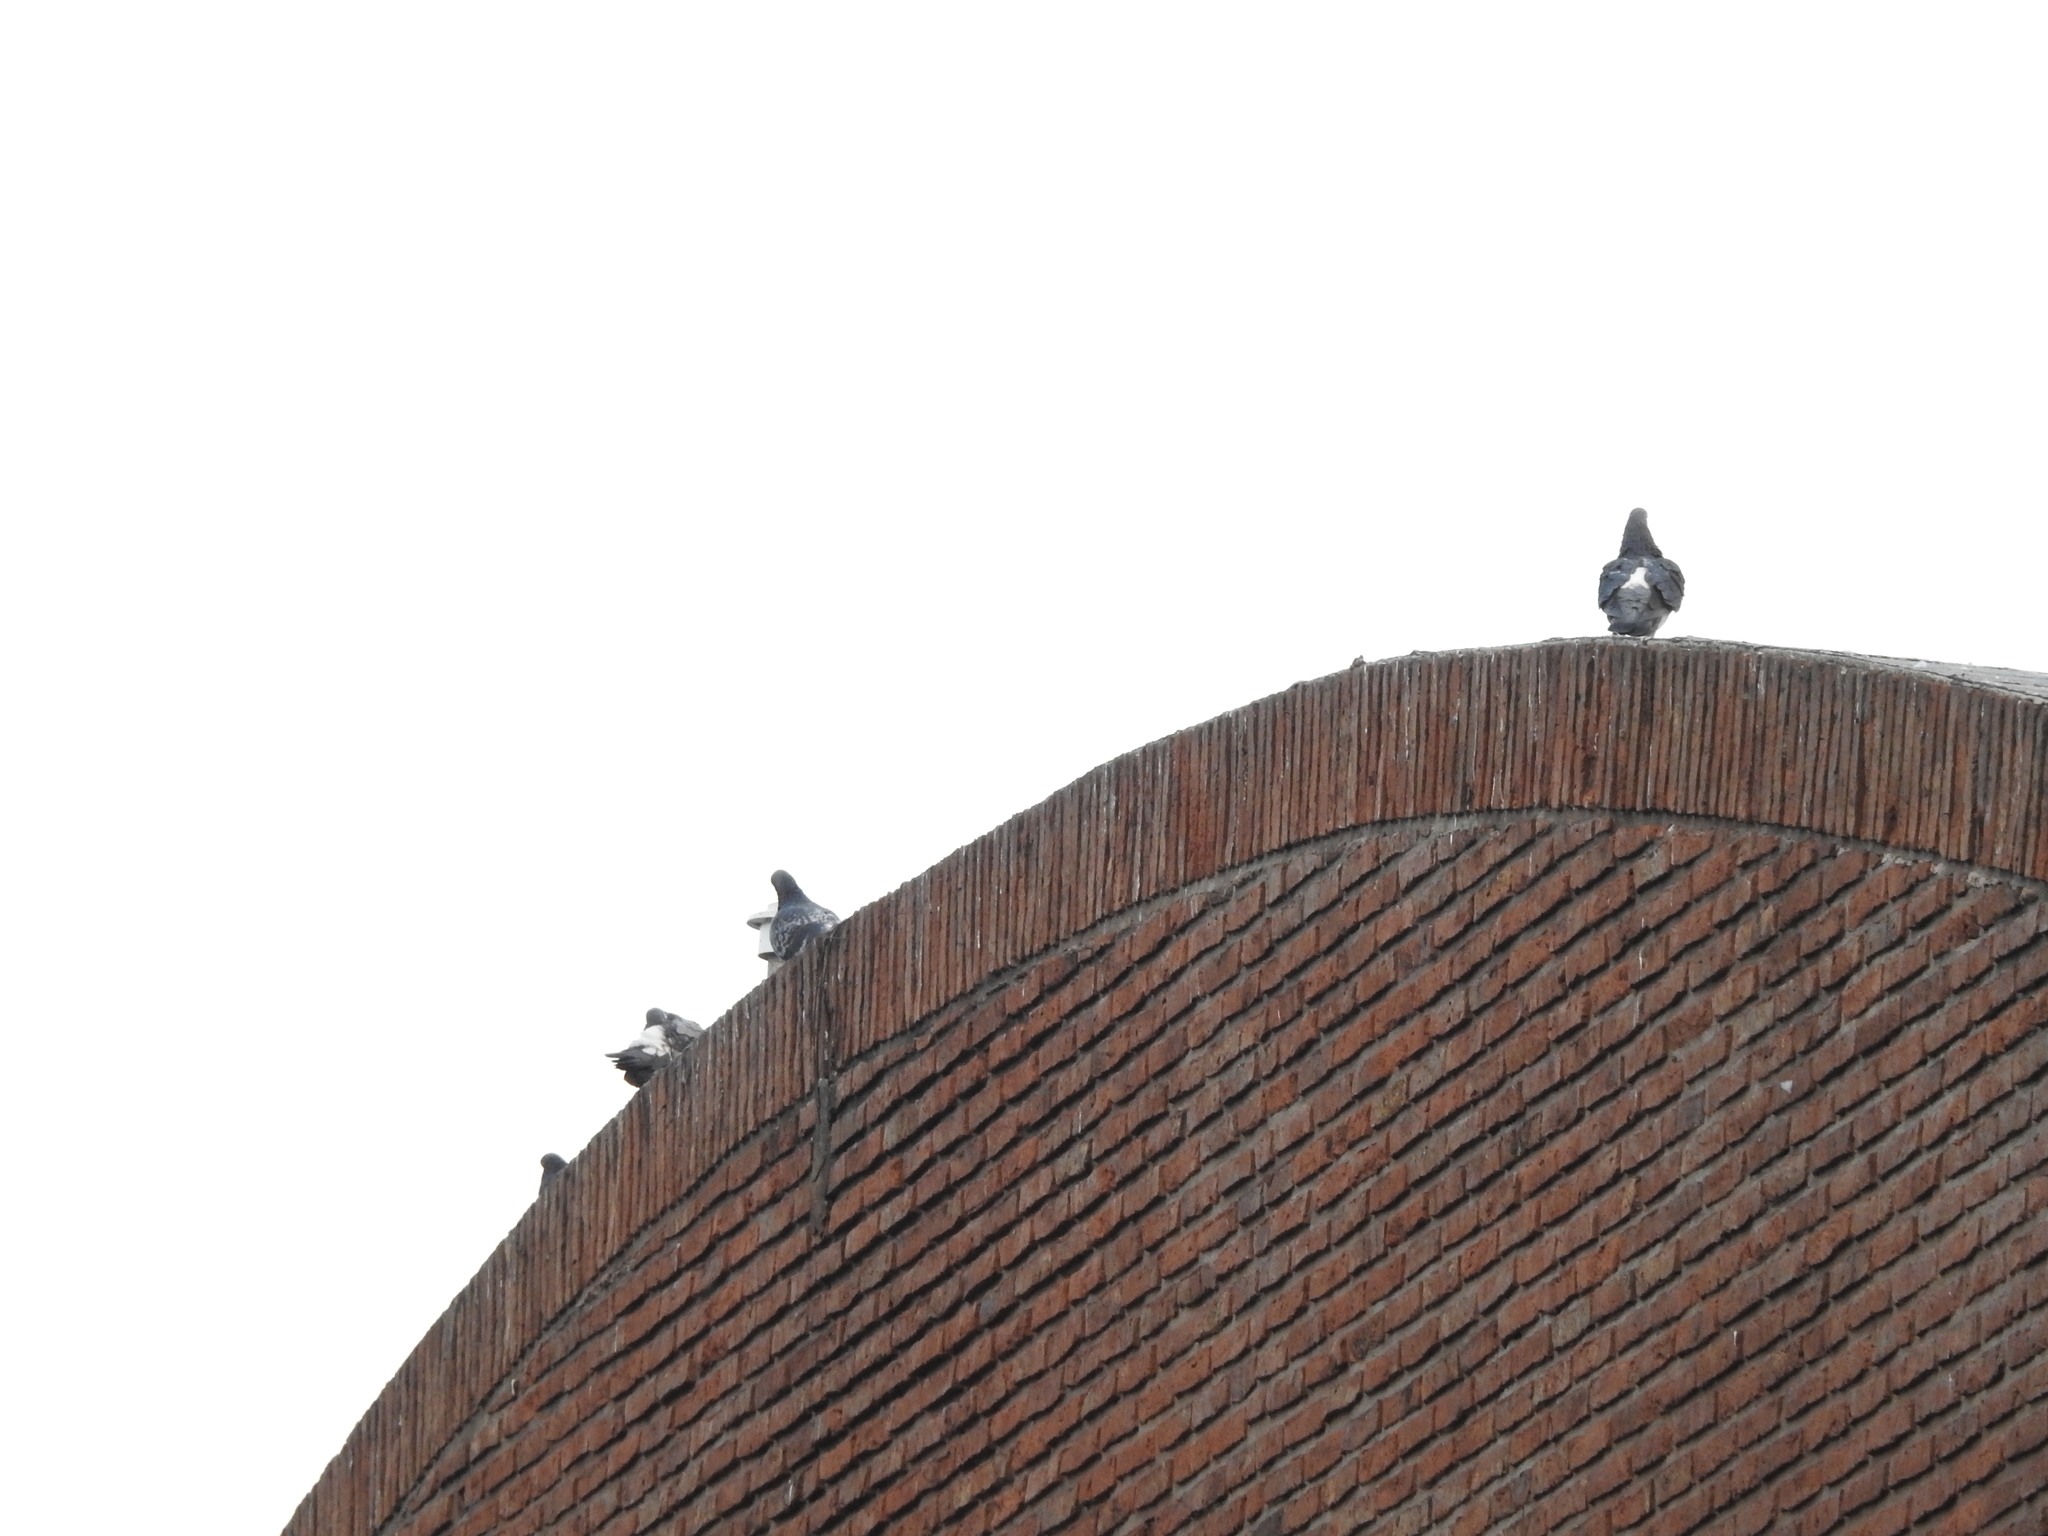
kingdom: Animalia
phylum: Chordata
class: Aves
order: Columbiformes
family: Columbidae
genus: Columba
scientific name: Columba livia
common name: Rock pigeon
